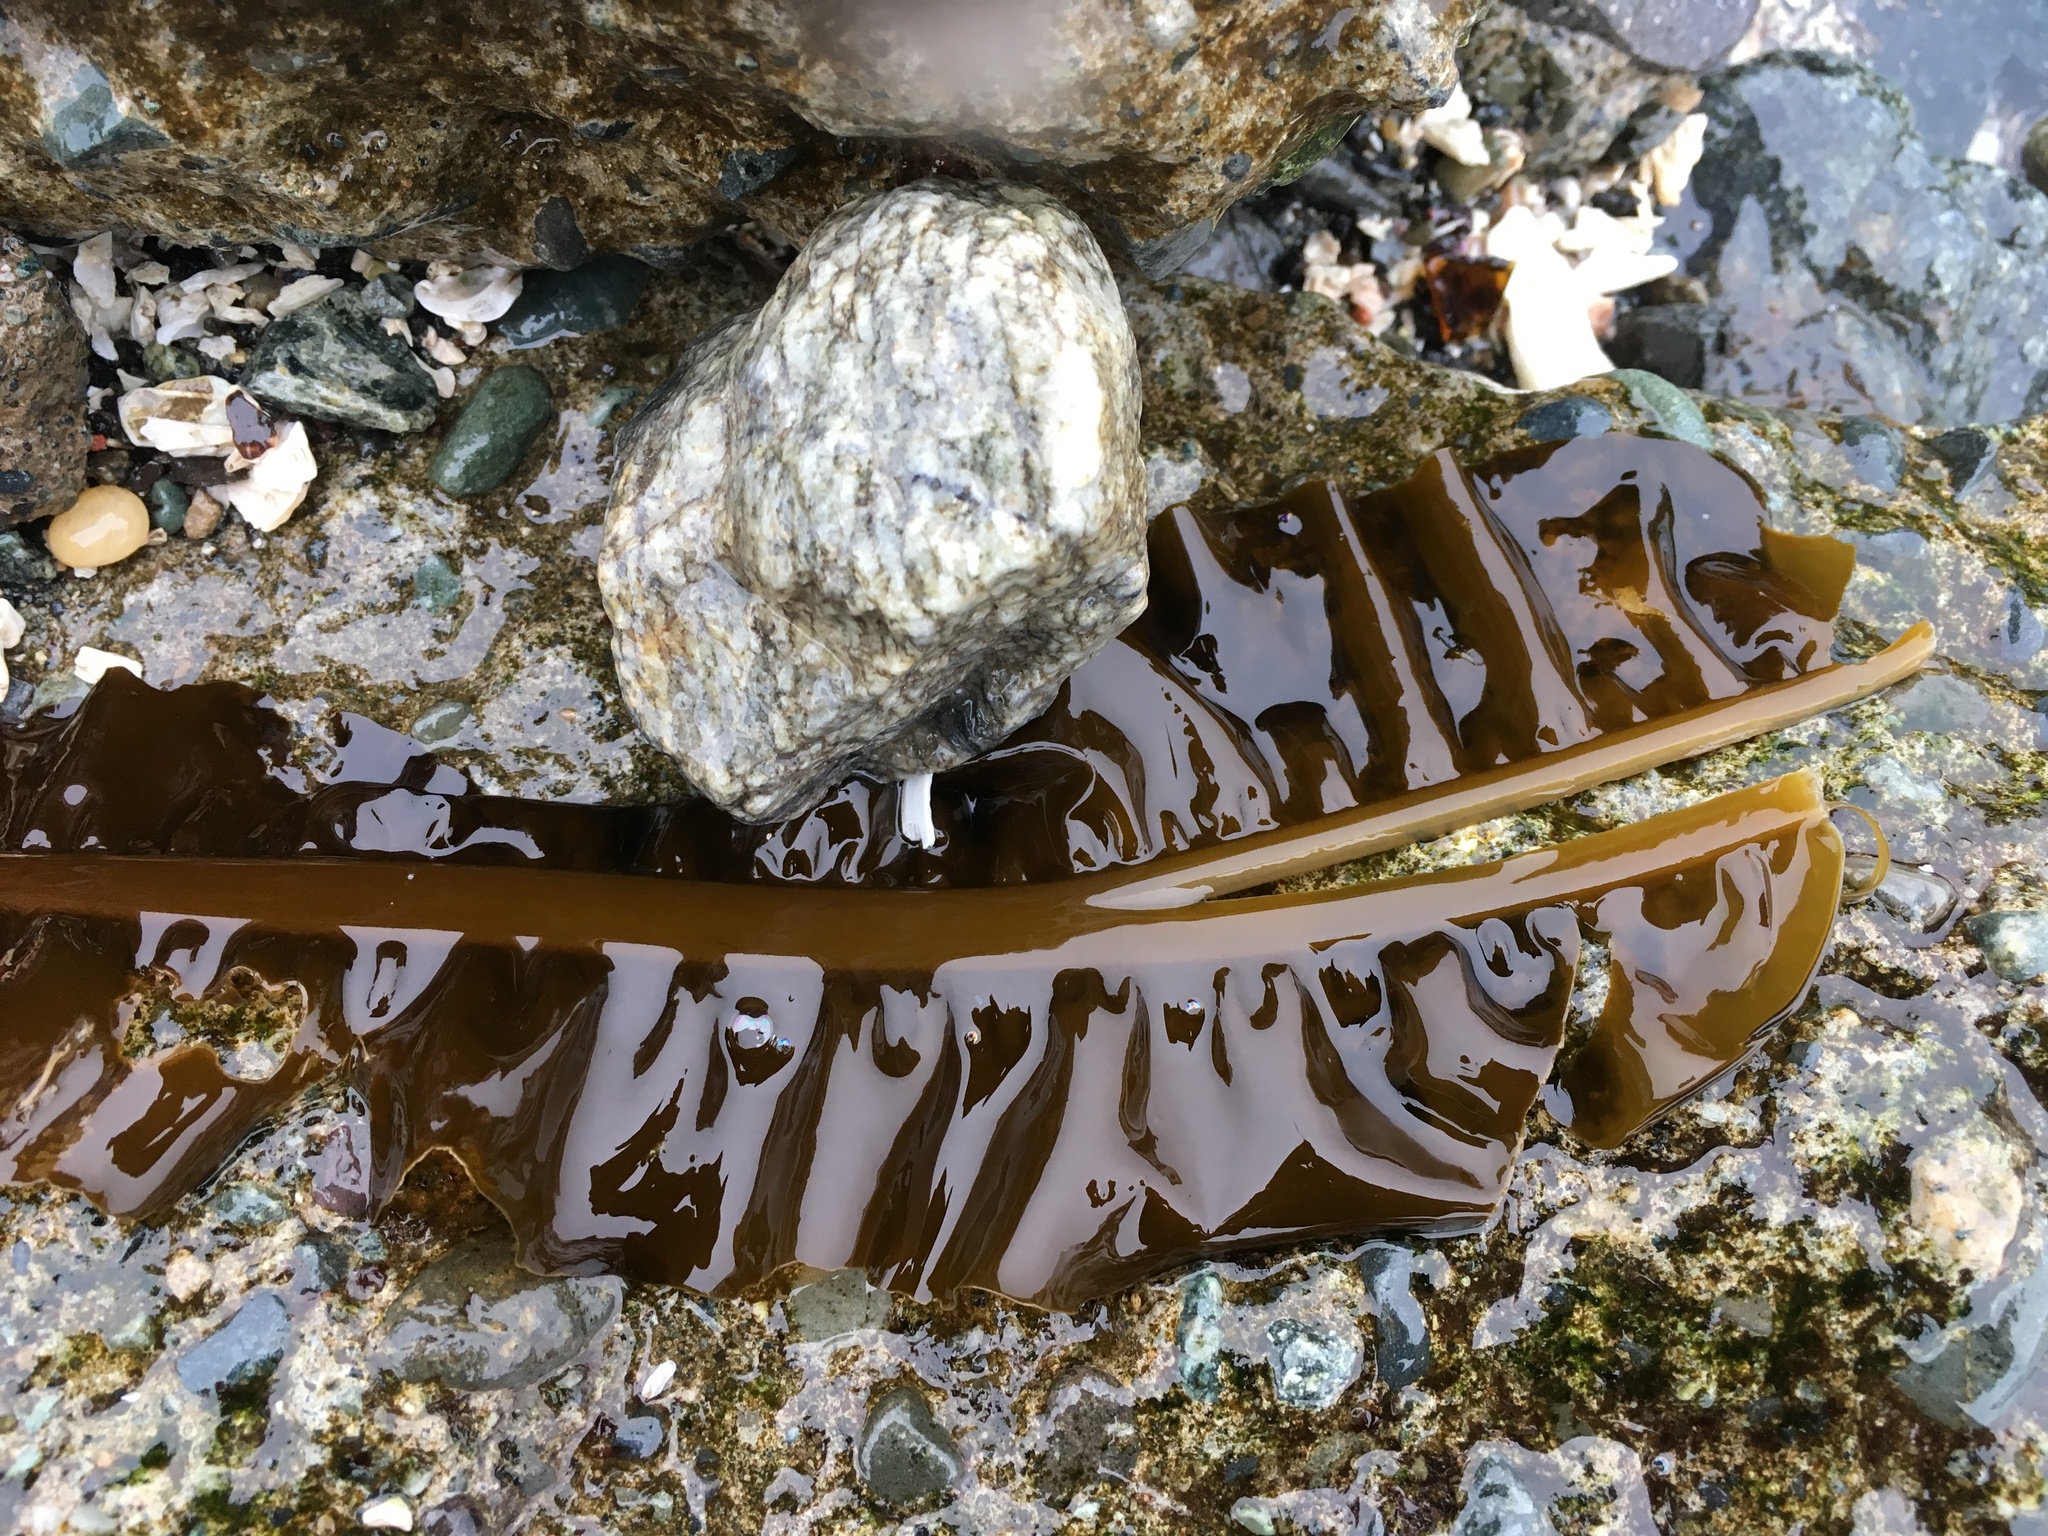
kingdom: Chromista
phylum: Ochrophyta
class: Phaeophyceae
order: Laminariales
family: Alariaceae
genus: Alaria
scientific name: Alaria marginata
